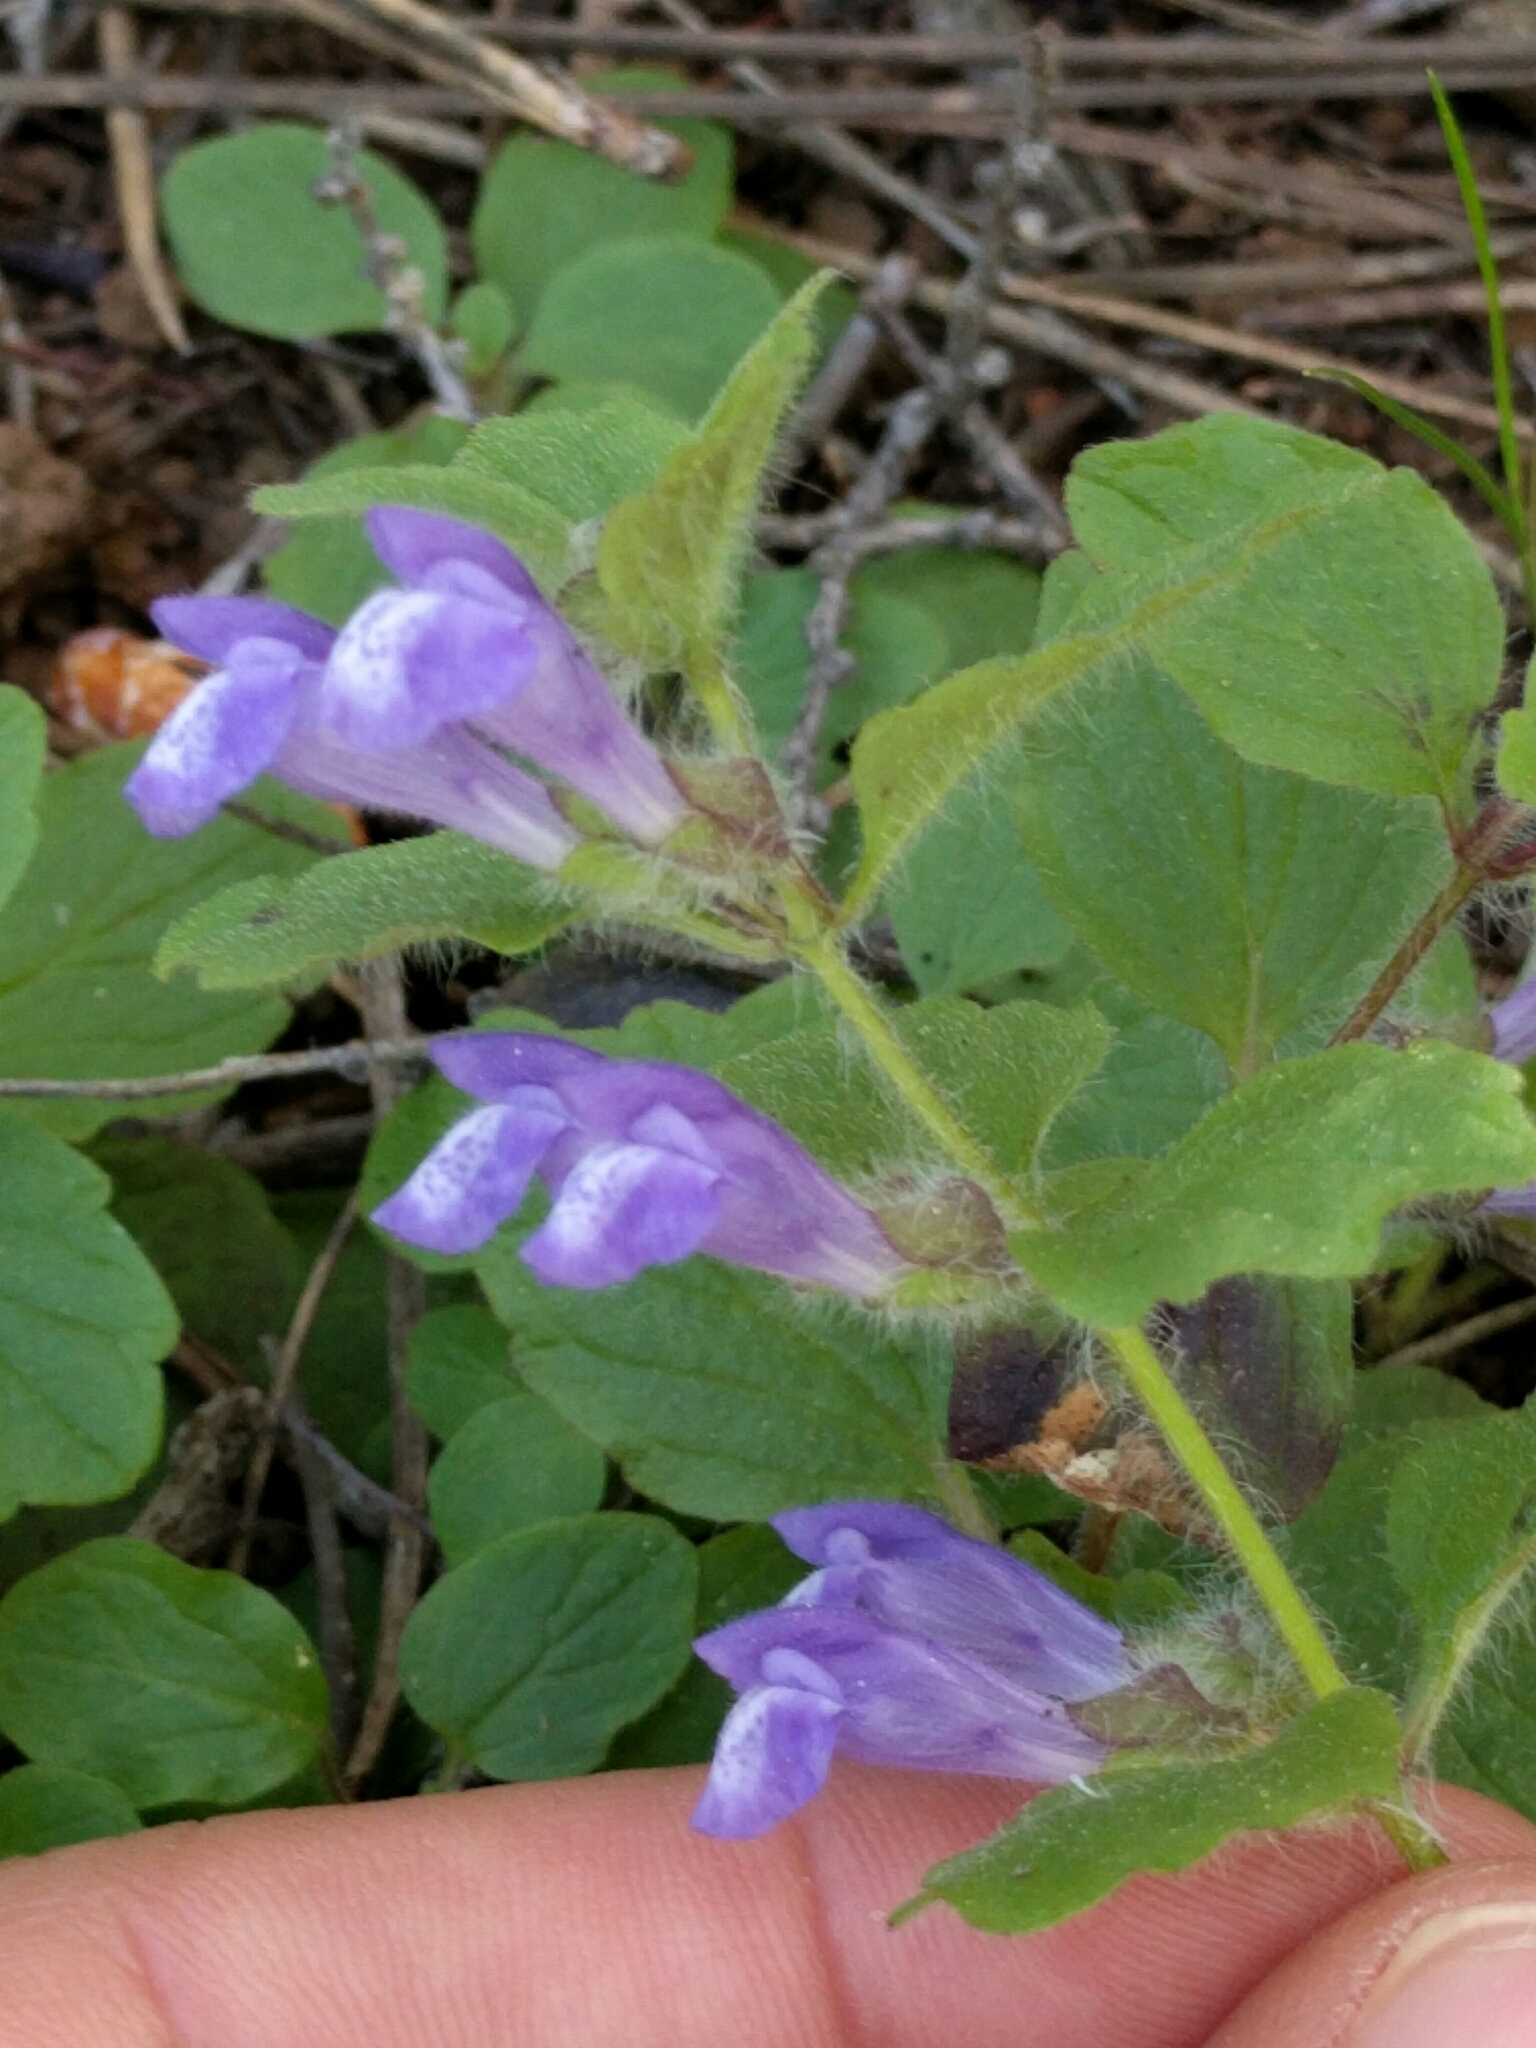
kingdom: Plantae
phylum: Tracheophyta
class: Magnoliopsida
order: Lamiales
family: Lamiaceae
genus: Scutellaria
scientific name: Scutellaria tuberosa
